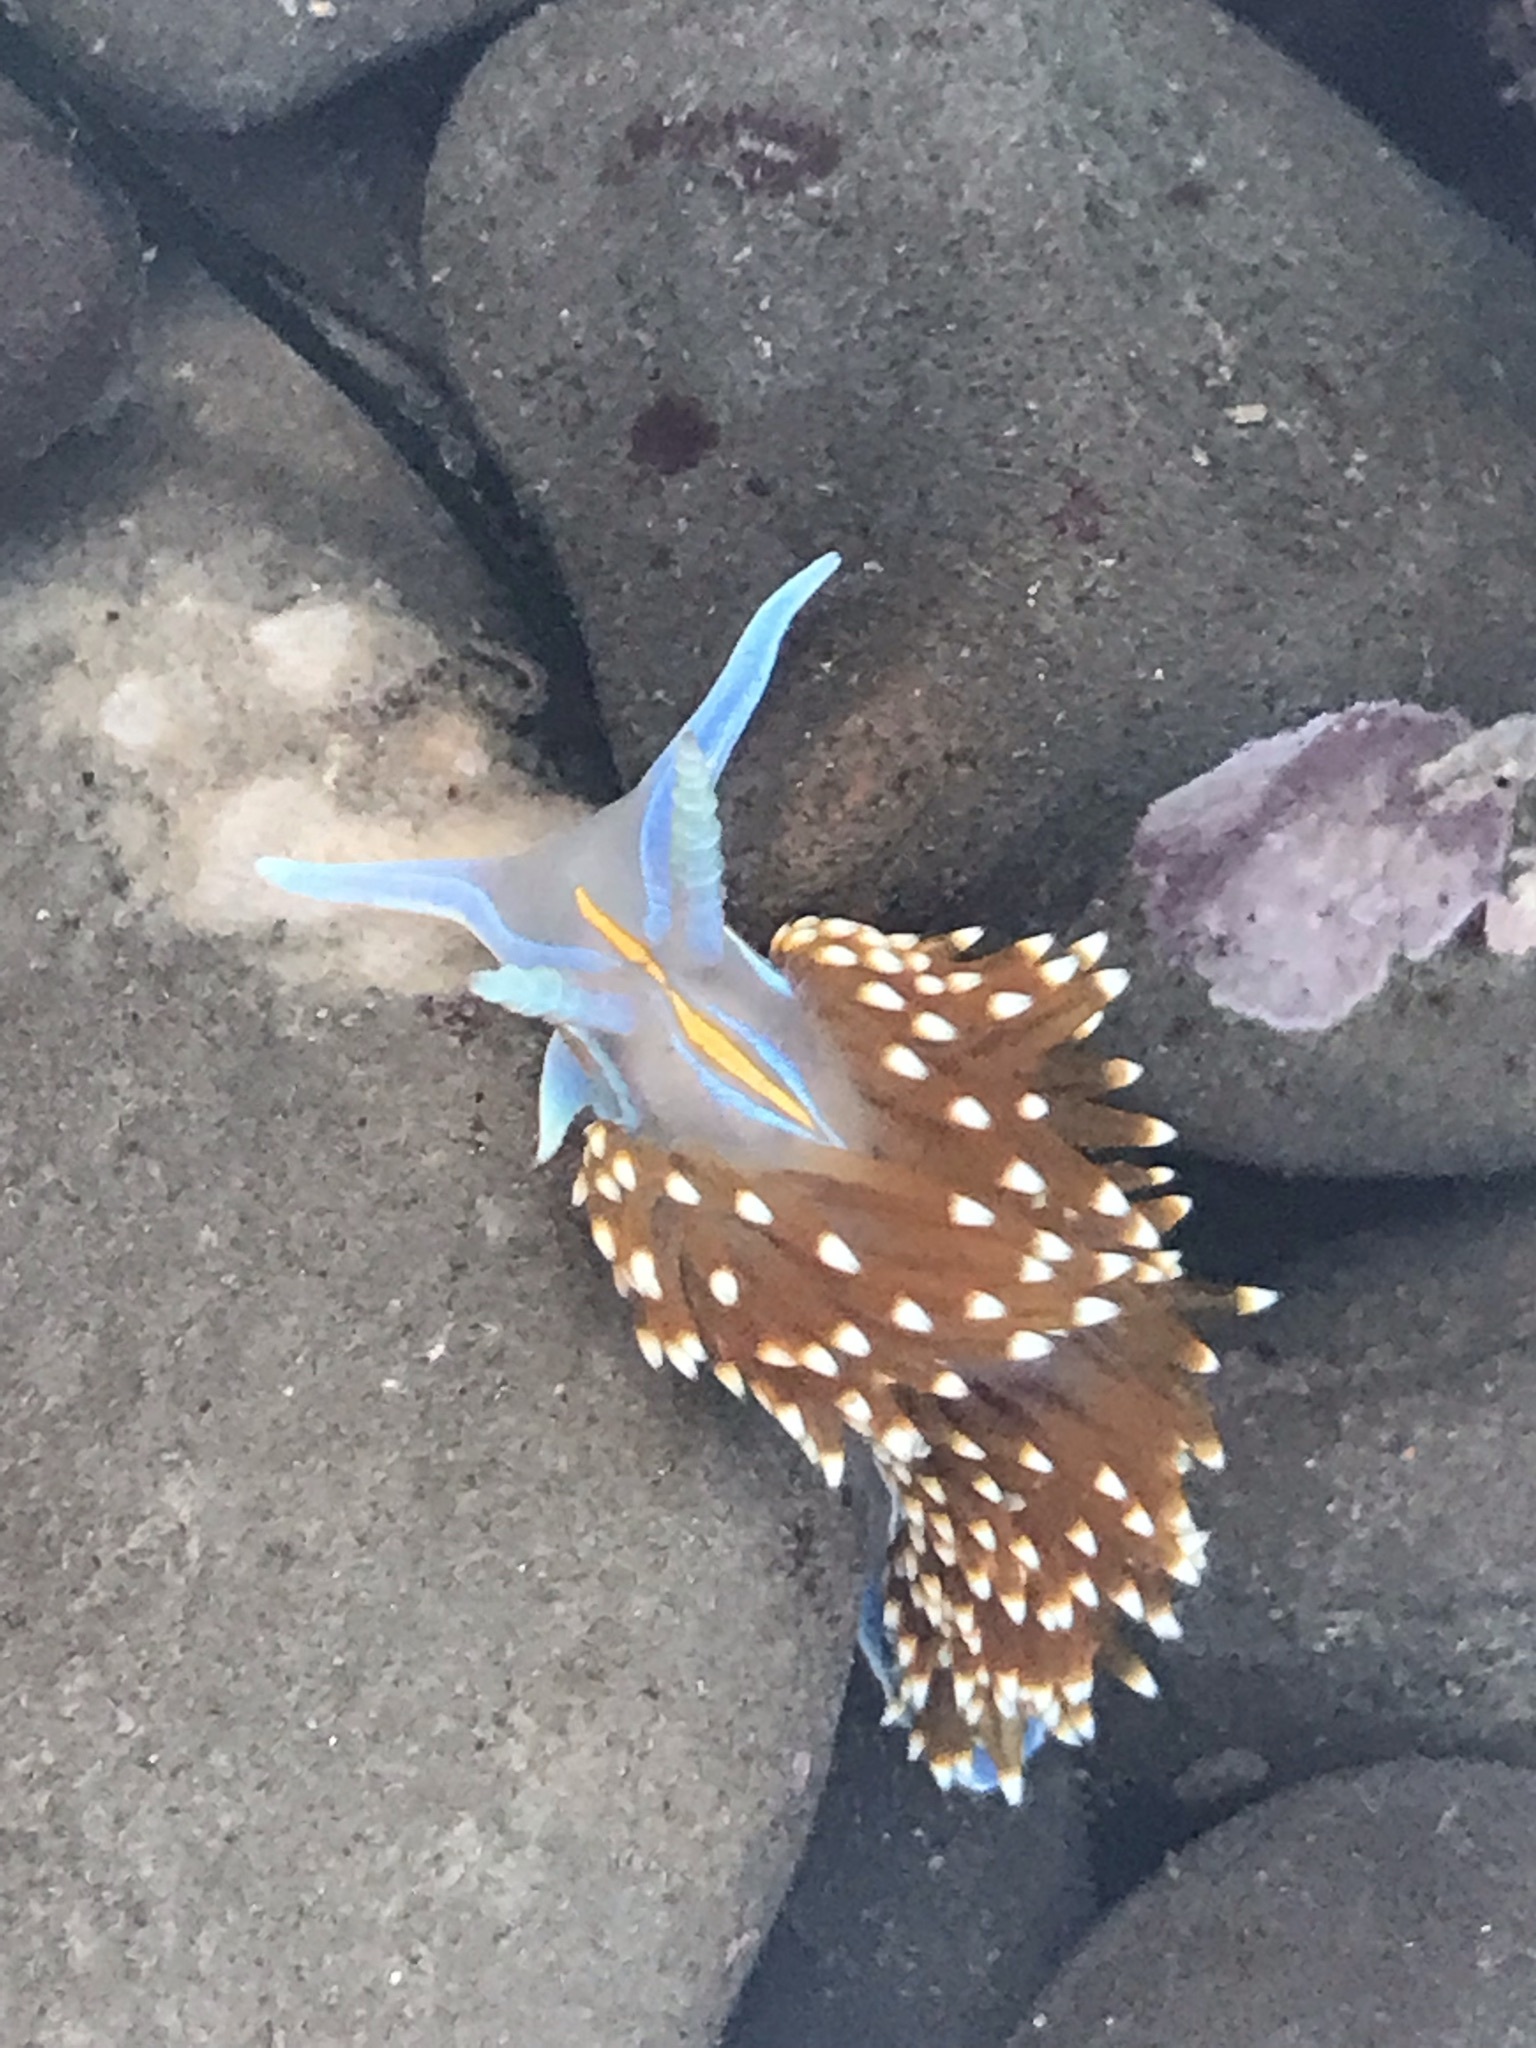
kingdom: Animalia
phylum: Mollusca
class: Gastropoda
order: Nudibranchia
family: Myrrhinidae
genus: Hermissenda
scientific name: Hermissenda opalescens
